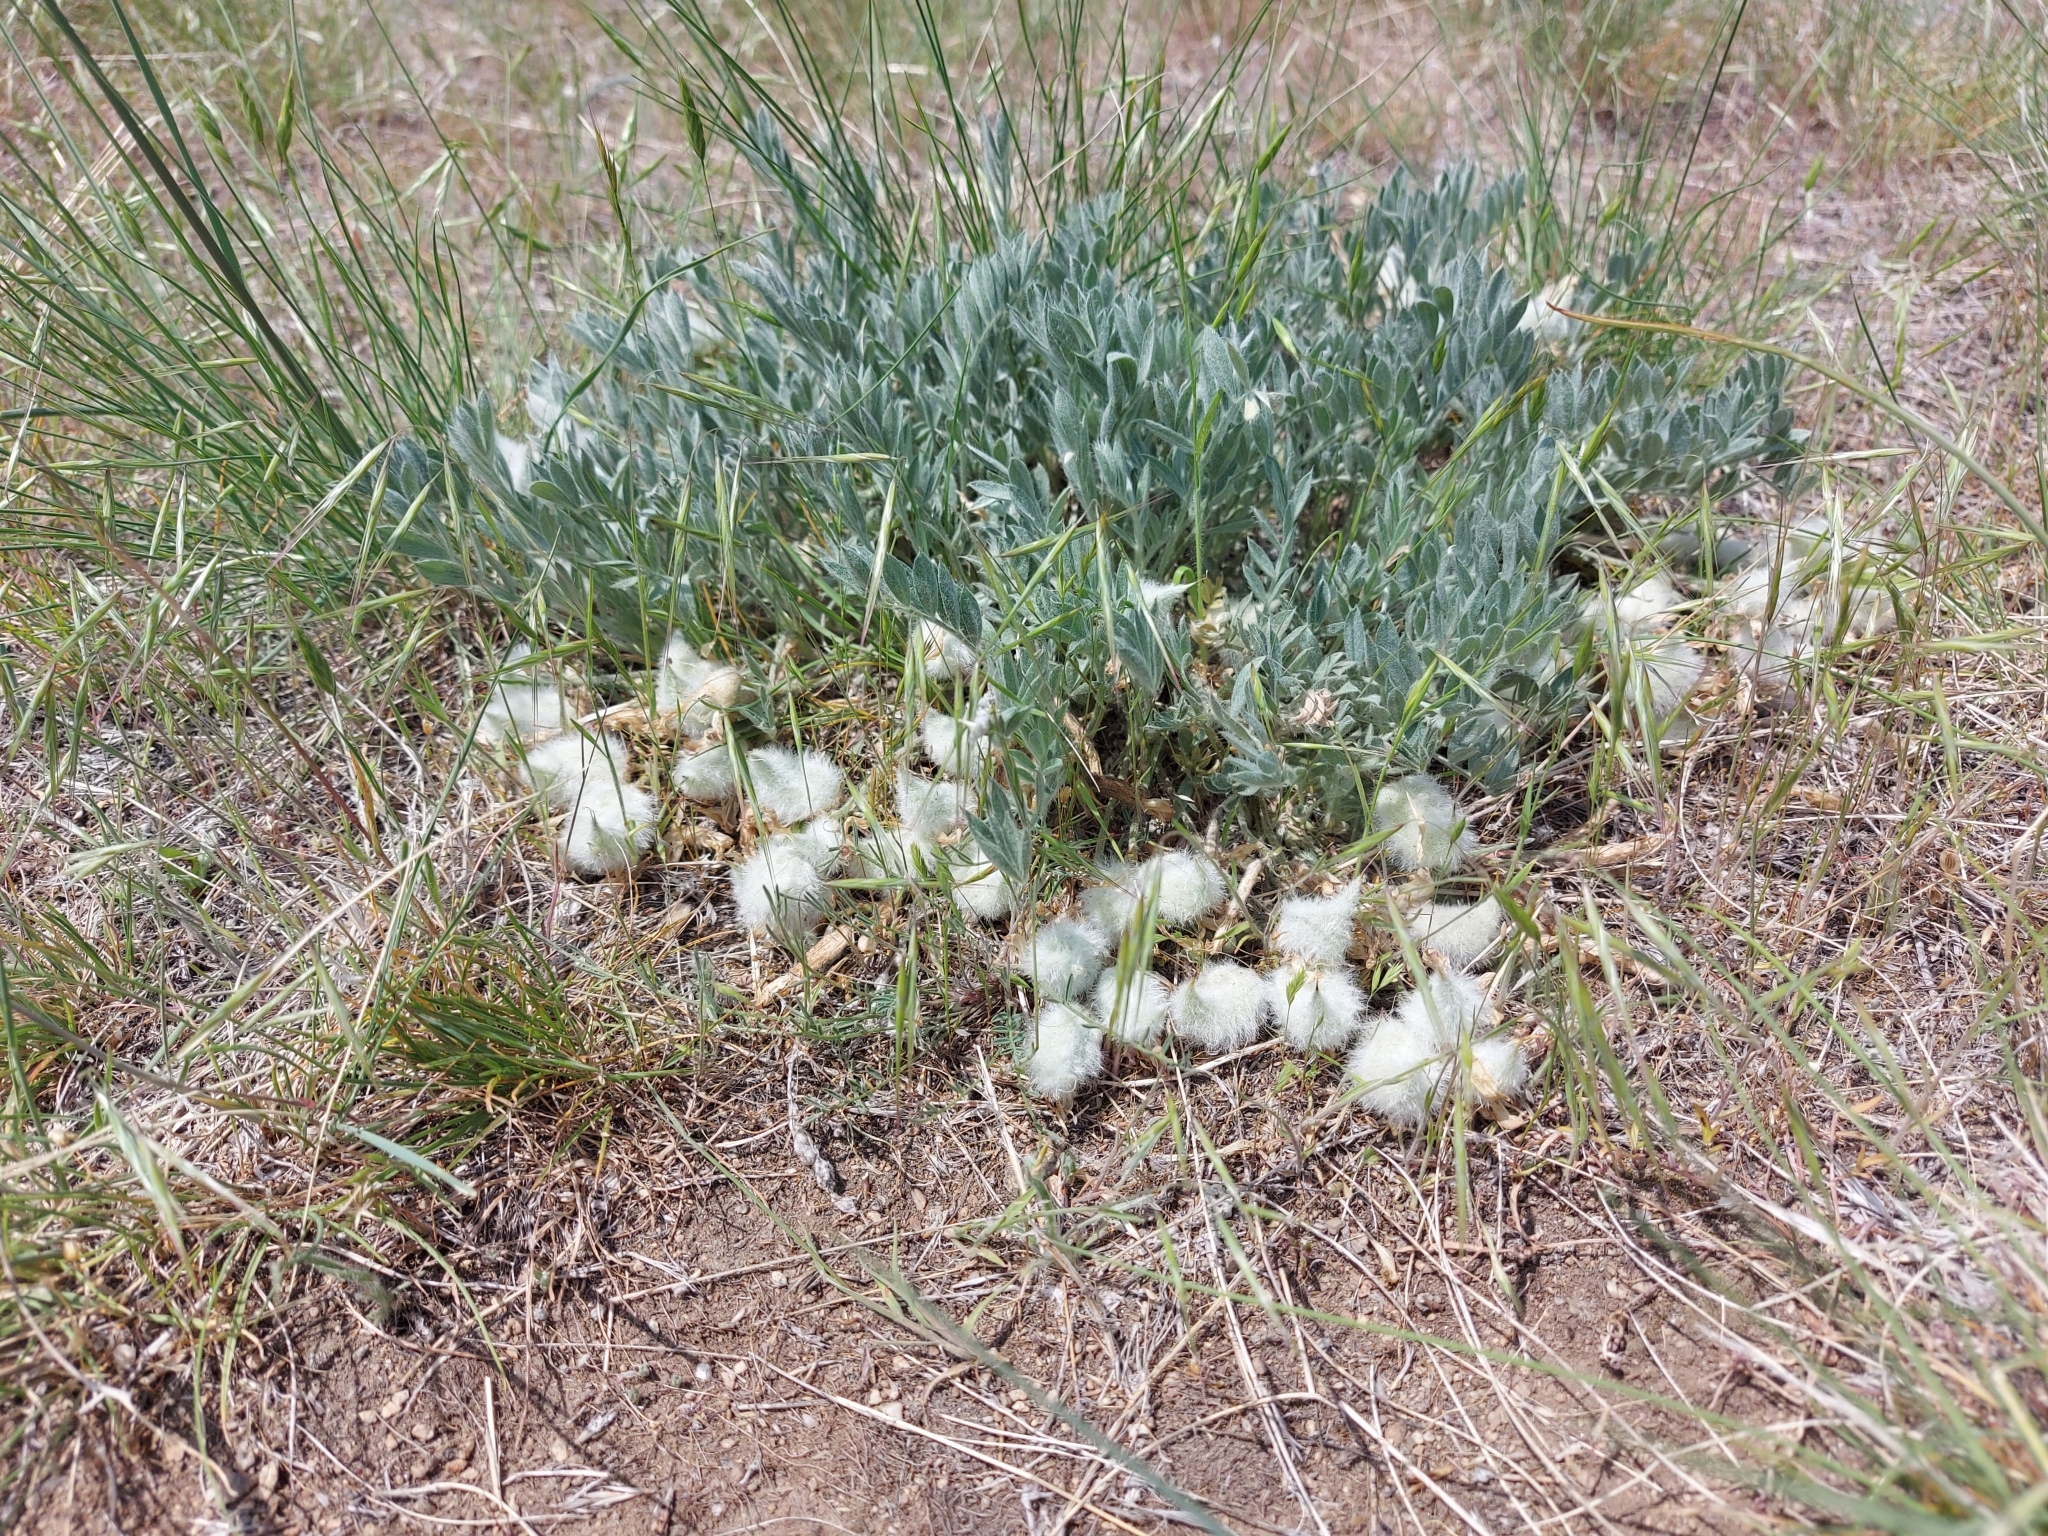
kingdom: Plantae
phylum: Tracheophyta
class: Magnoliopsida
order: Fabales
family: Fabaceae
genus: Astragalus
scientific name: Astragalus purshii
